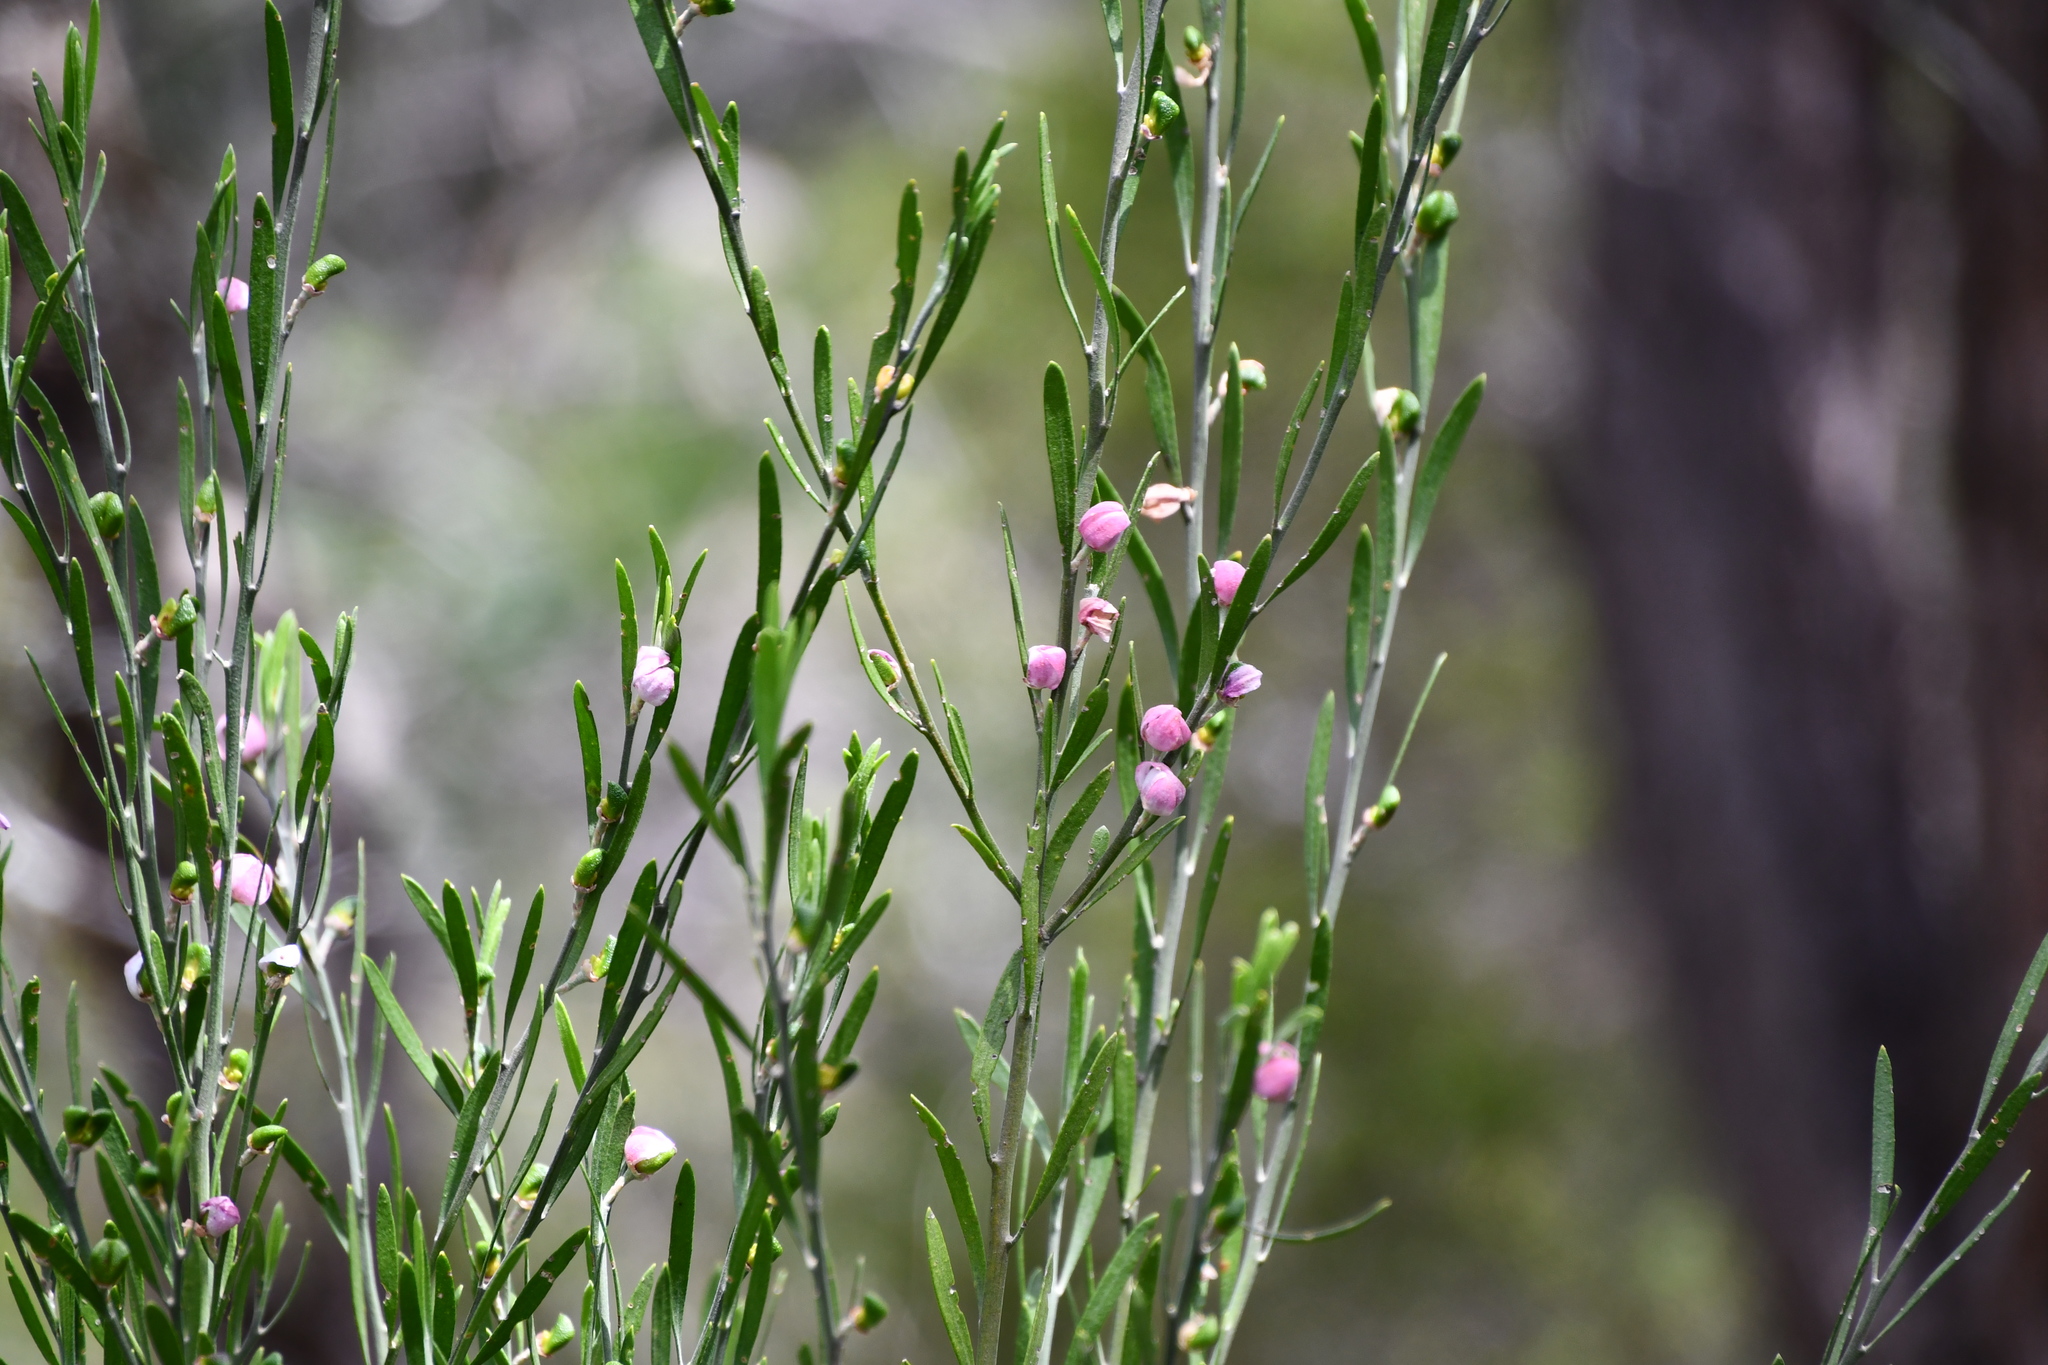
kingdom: Plantae
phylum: Tracheophyta
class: Magnoliopsida
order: Sapindales
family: Rutaceae
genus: Eriostemon
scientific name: Eriostemon australasius
